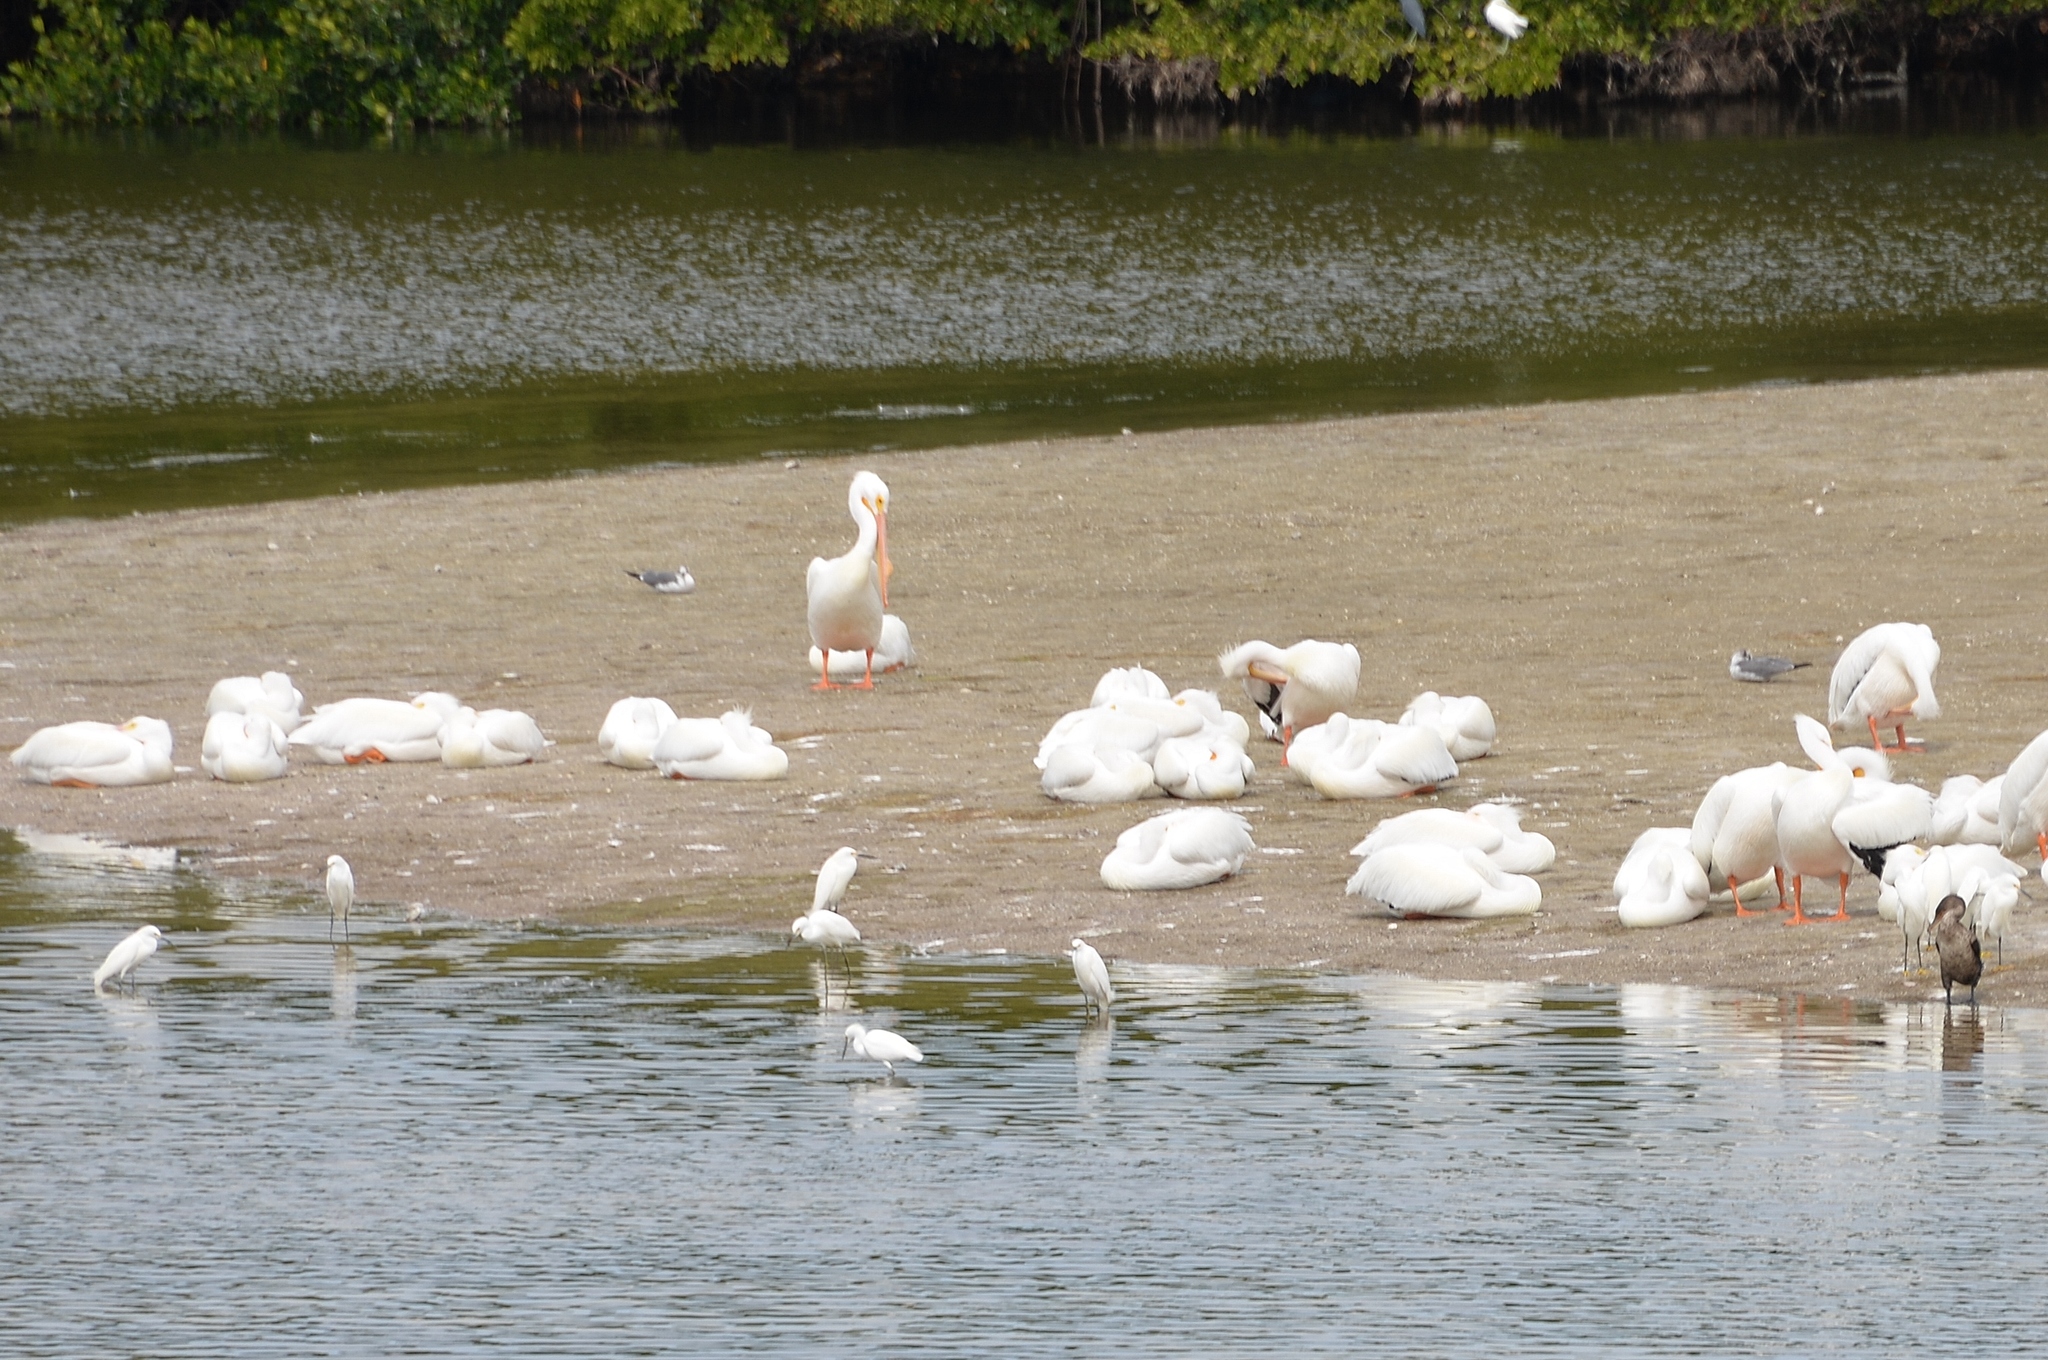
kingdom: Animalia
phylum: Chordata
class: Aves
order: Pelecaniformes
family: Ardeidae
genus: Egretta
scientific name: Egretta thula
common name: Snowy egret
